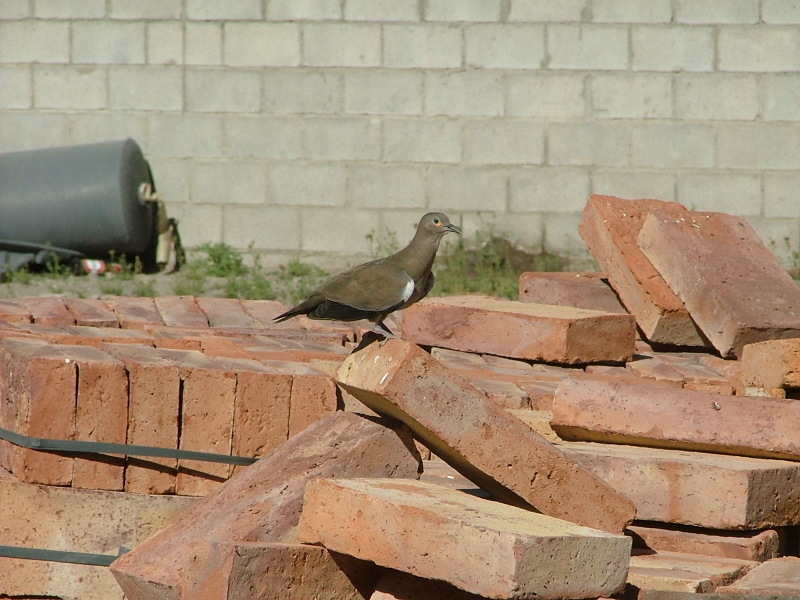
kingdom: Animalia
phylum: Chordata
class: Aves
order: Columbiformes
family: Columbidae
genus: Metriopelia
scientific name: Metriopelia melanoptera
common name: Black-winged ground dove
